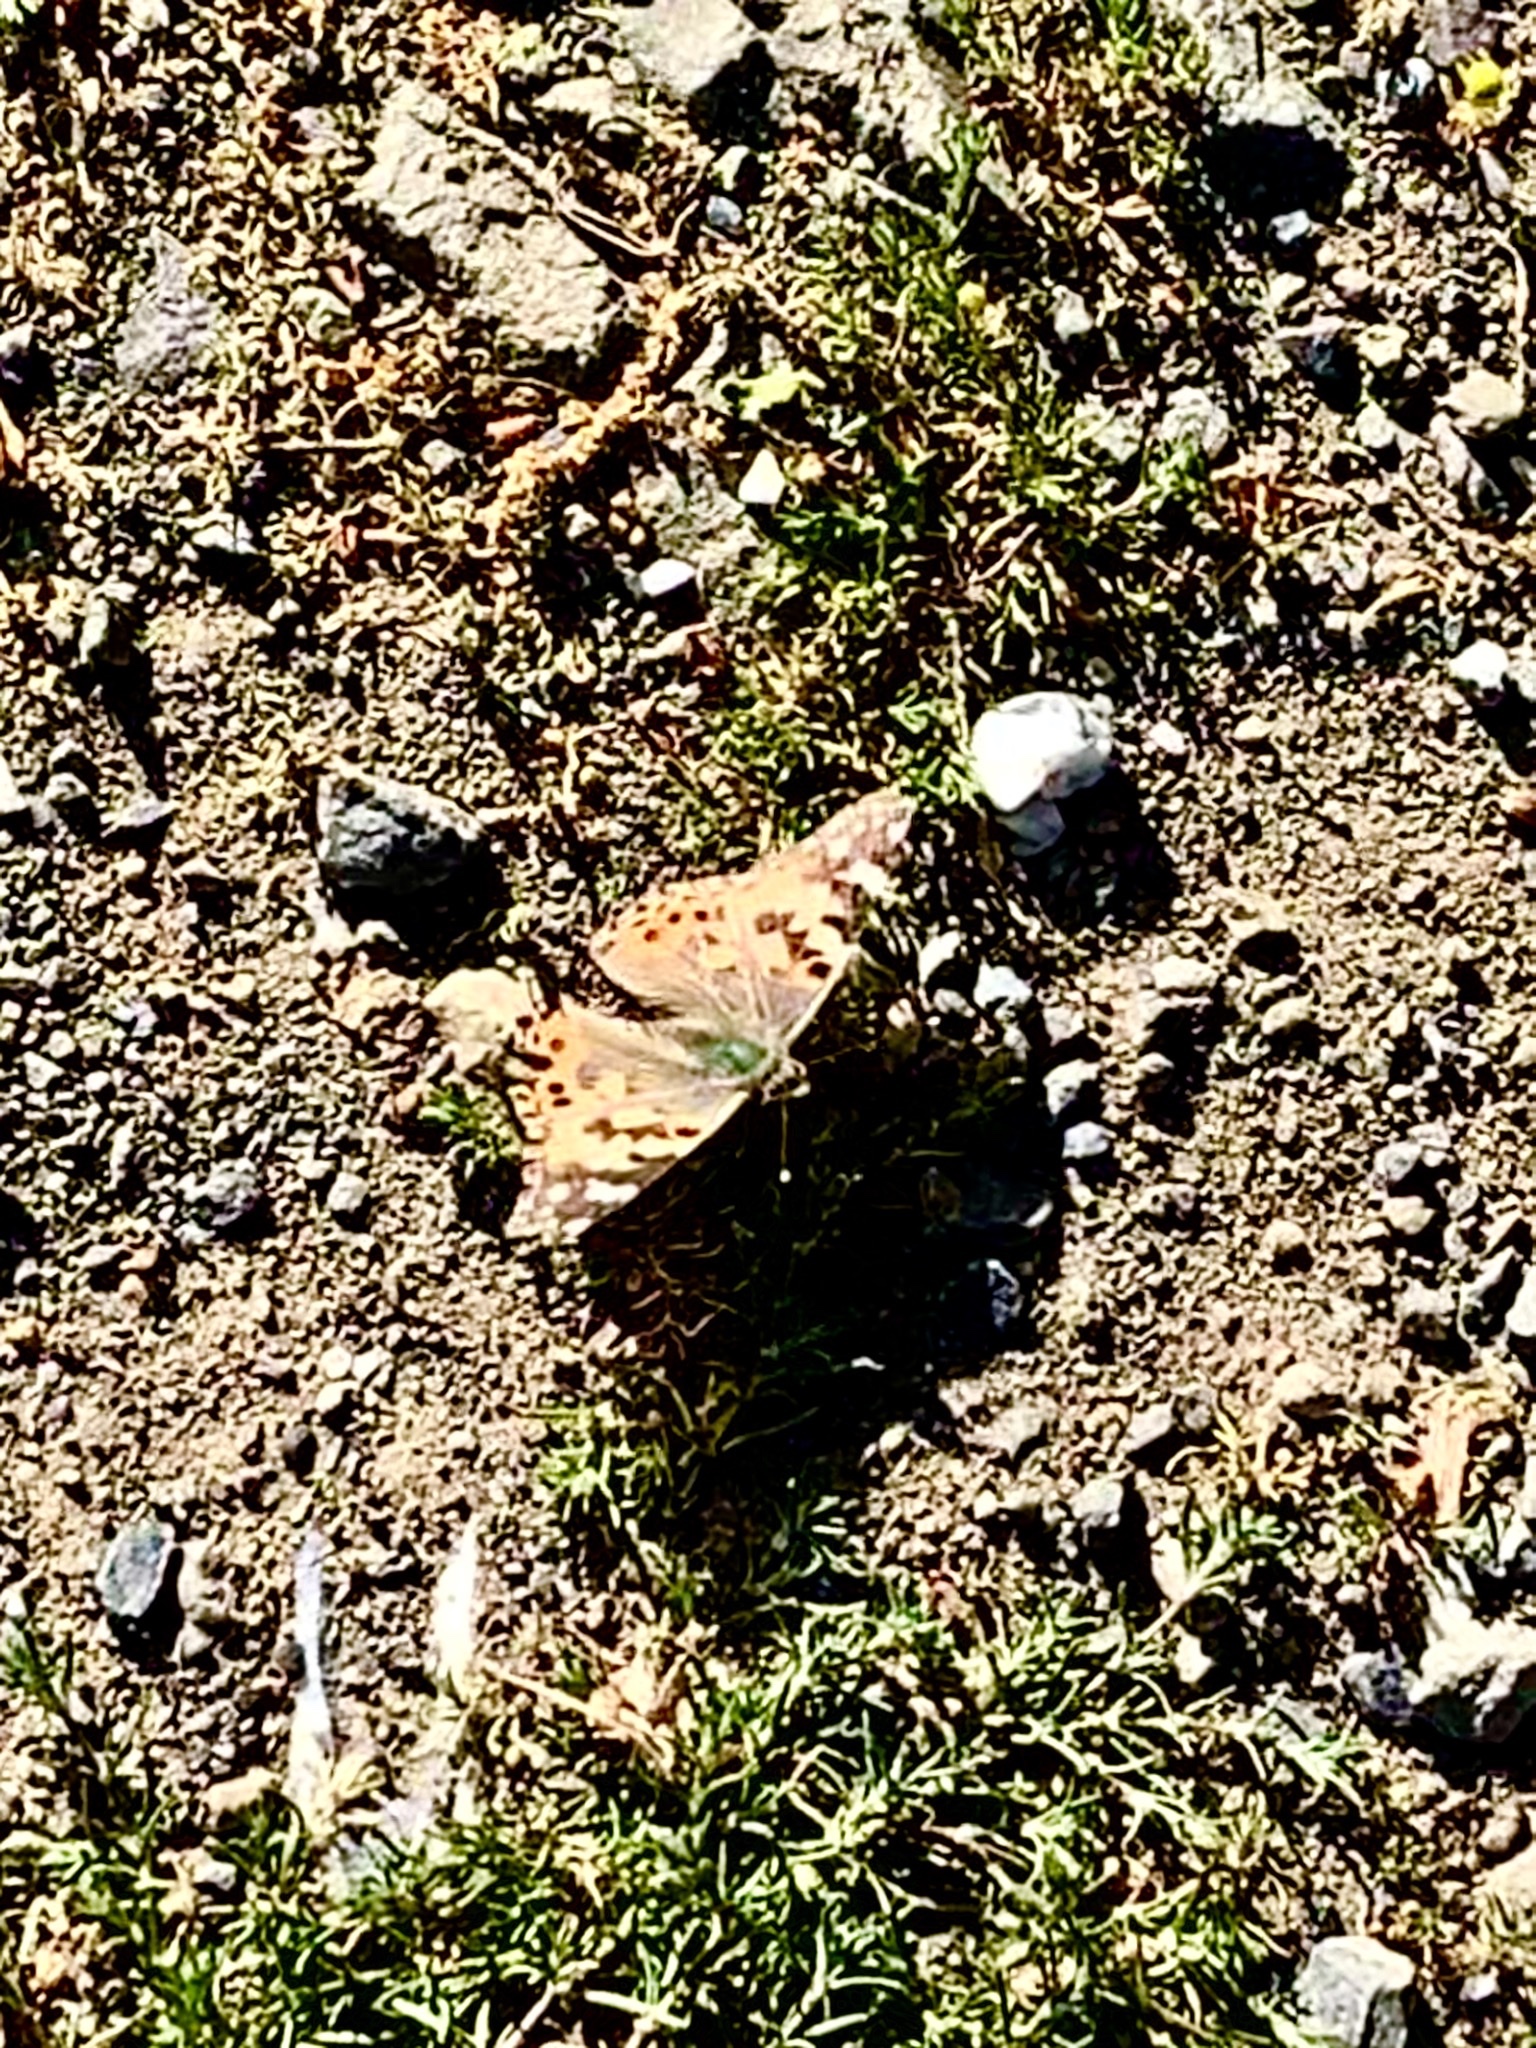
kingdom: Animalia
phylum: Arthropoda
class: Insecta
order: Lepidoptera
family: Nymphalidae
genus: Vanessa
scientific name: Vanessa cardui
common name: Painted lady
